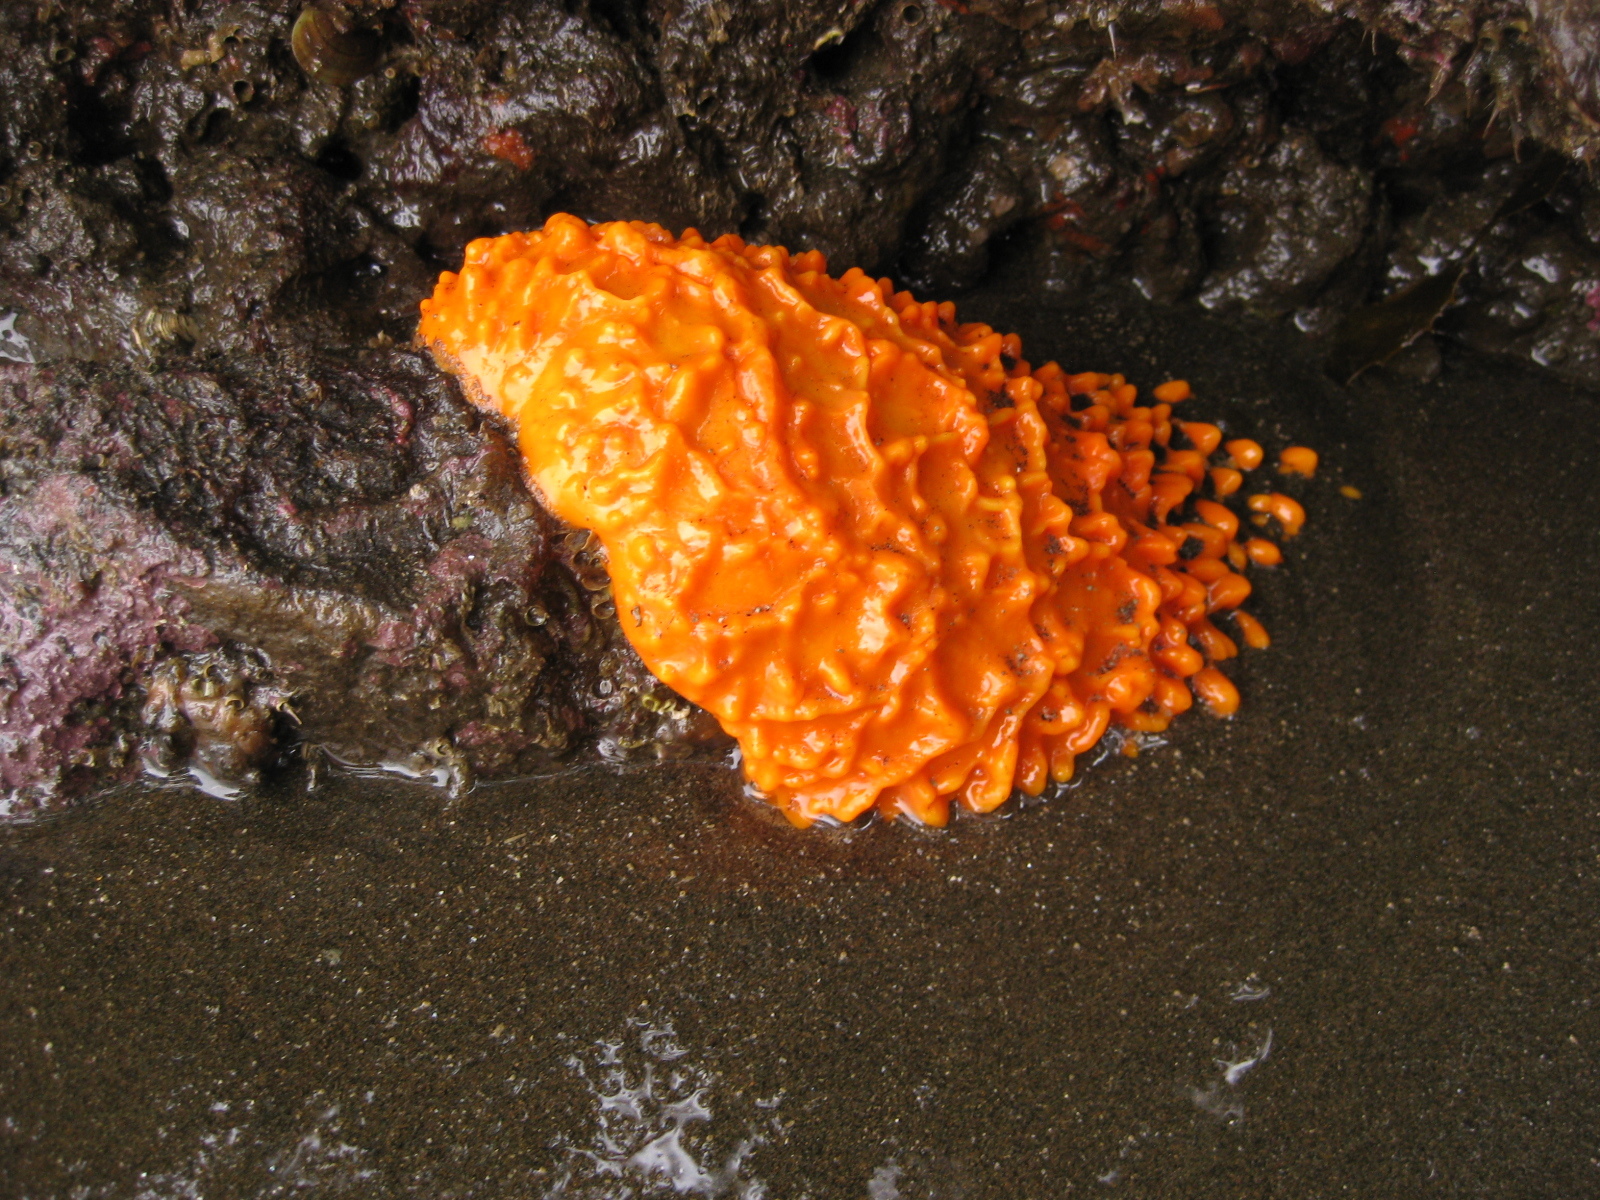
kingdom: Animalia
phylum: Porifera
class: Demospongiae
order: Polymastiida
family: Polymastiidae
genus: Polymastia
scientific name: Polymastia aurantia
